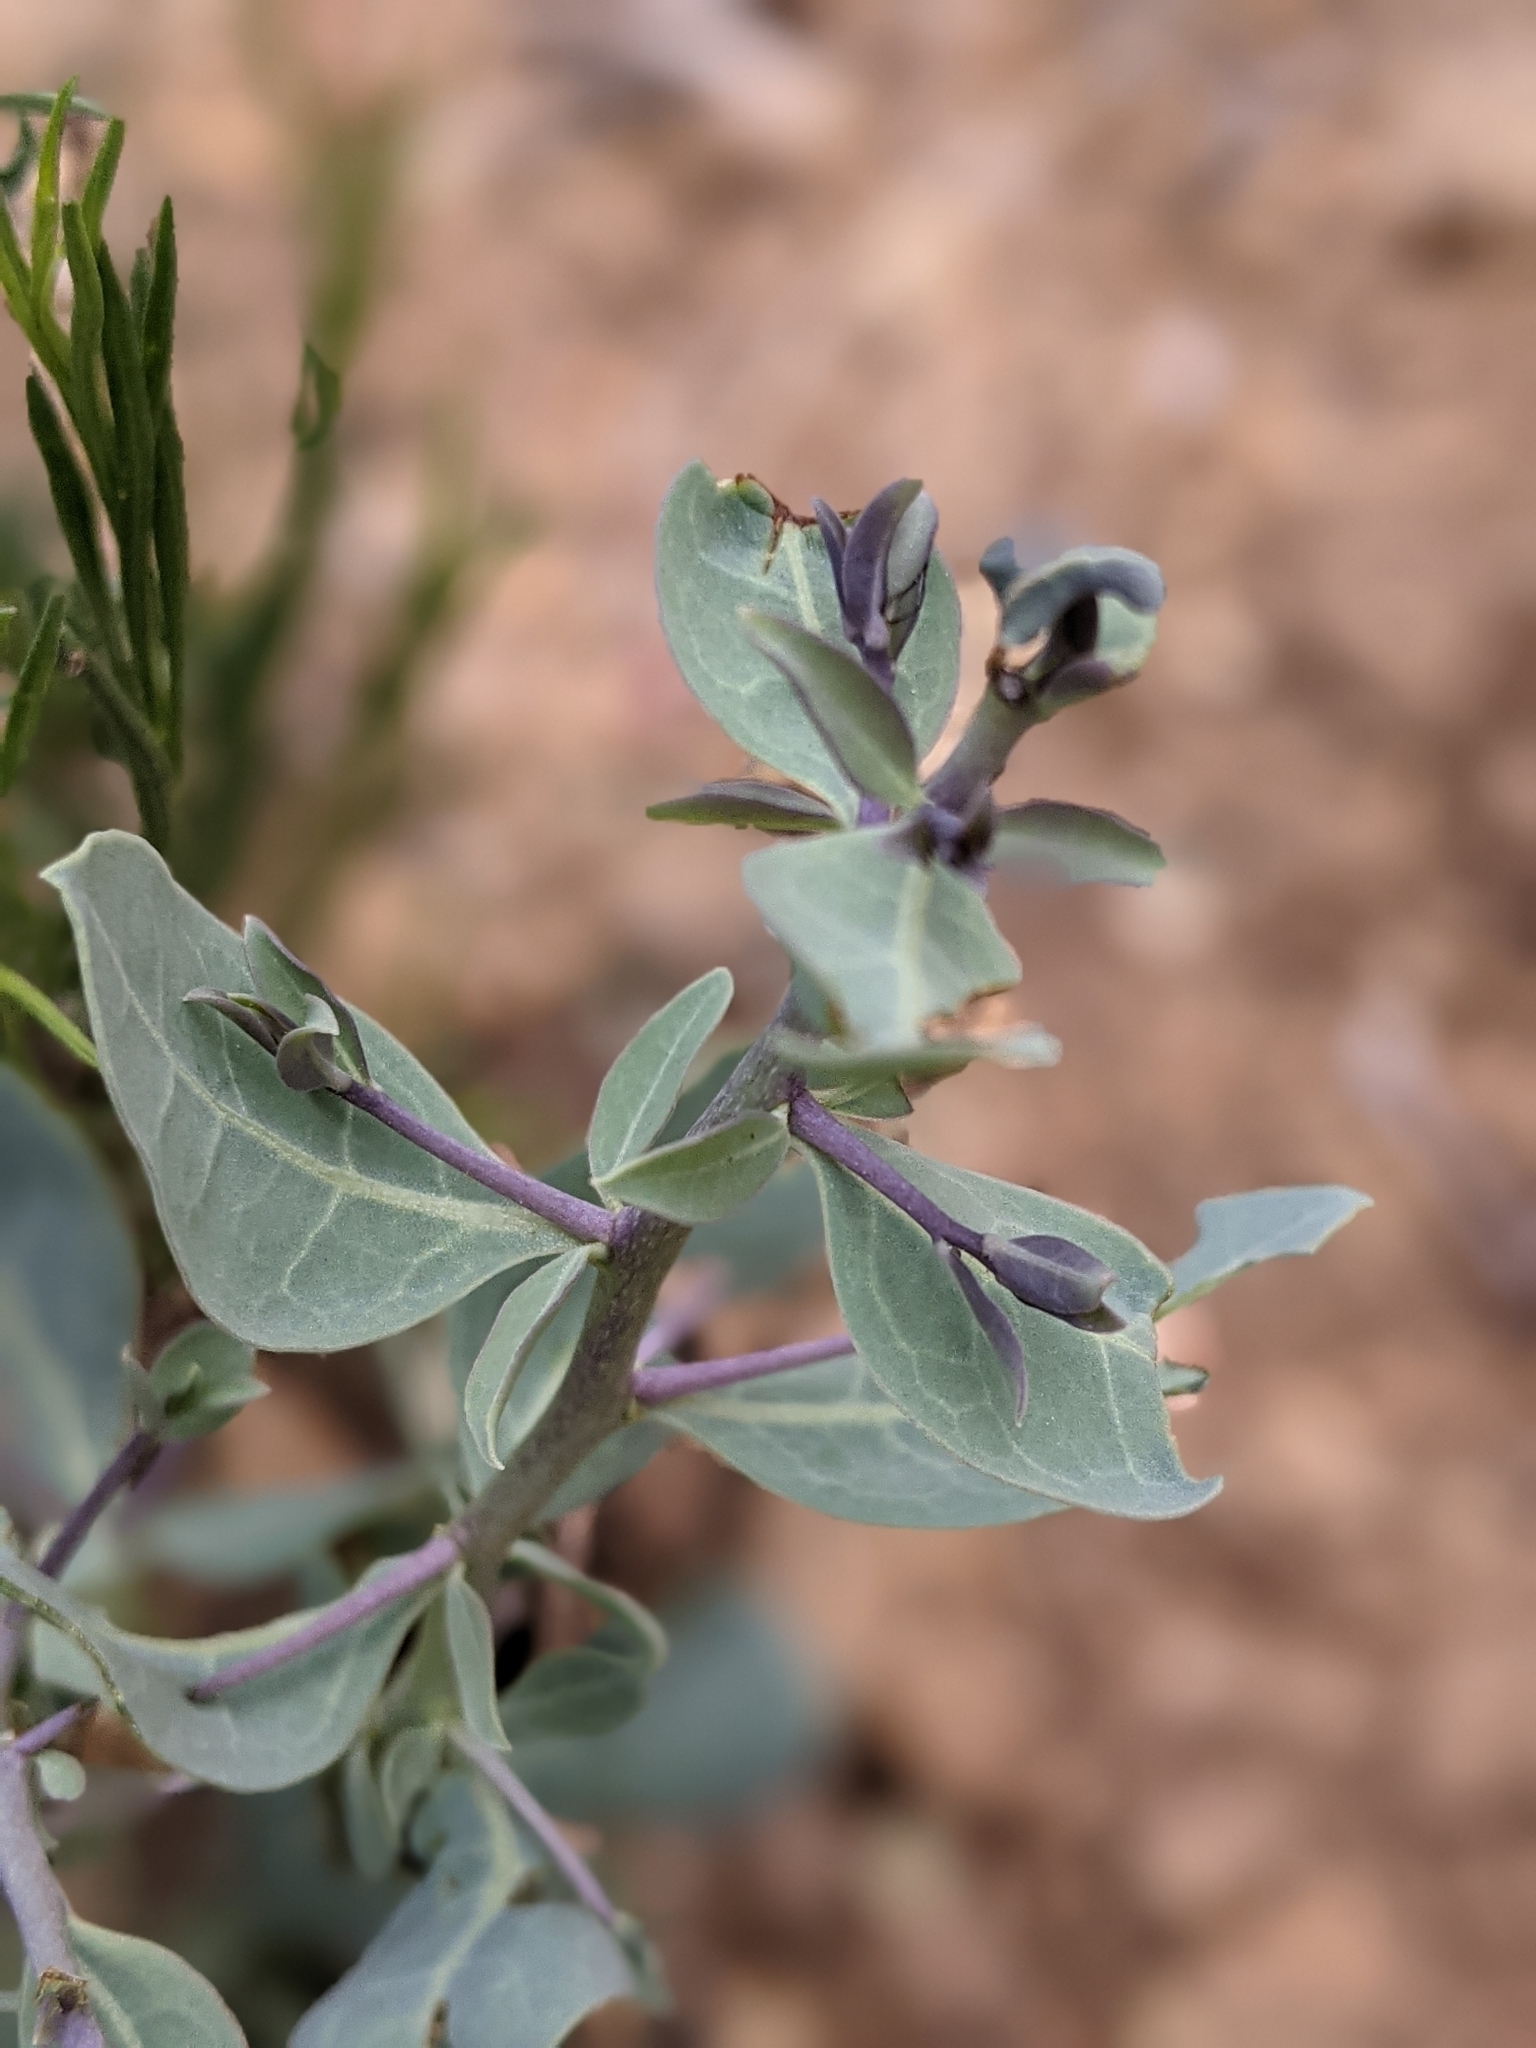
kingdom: Plantae
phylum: Tracheophyta
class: Magnoliopsida
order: Solanales
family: Solanaceae
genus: Lycium
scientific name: Lycium pallidum
